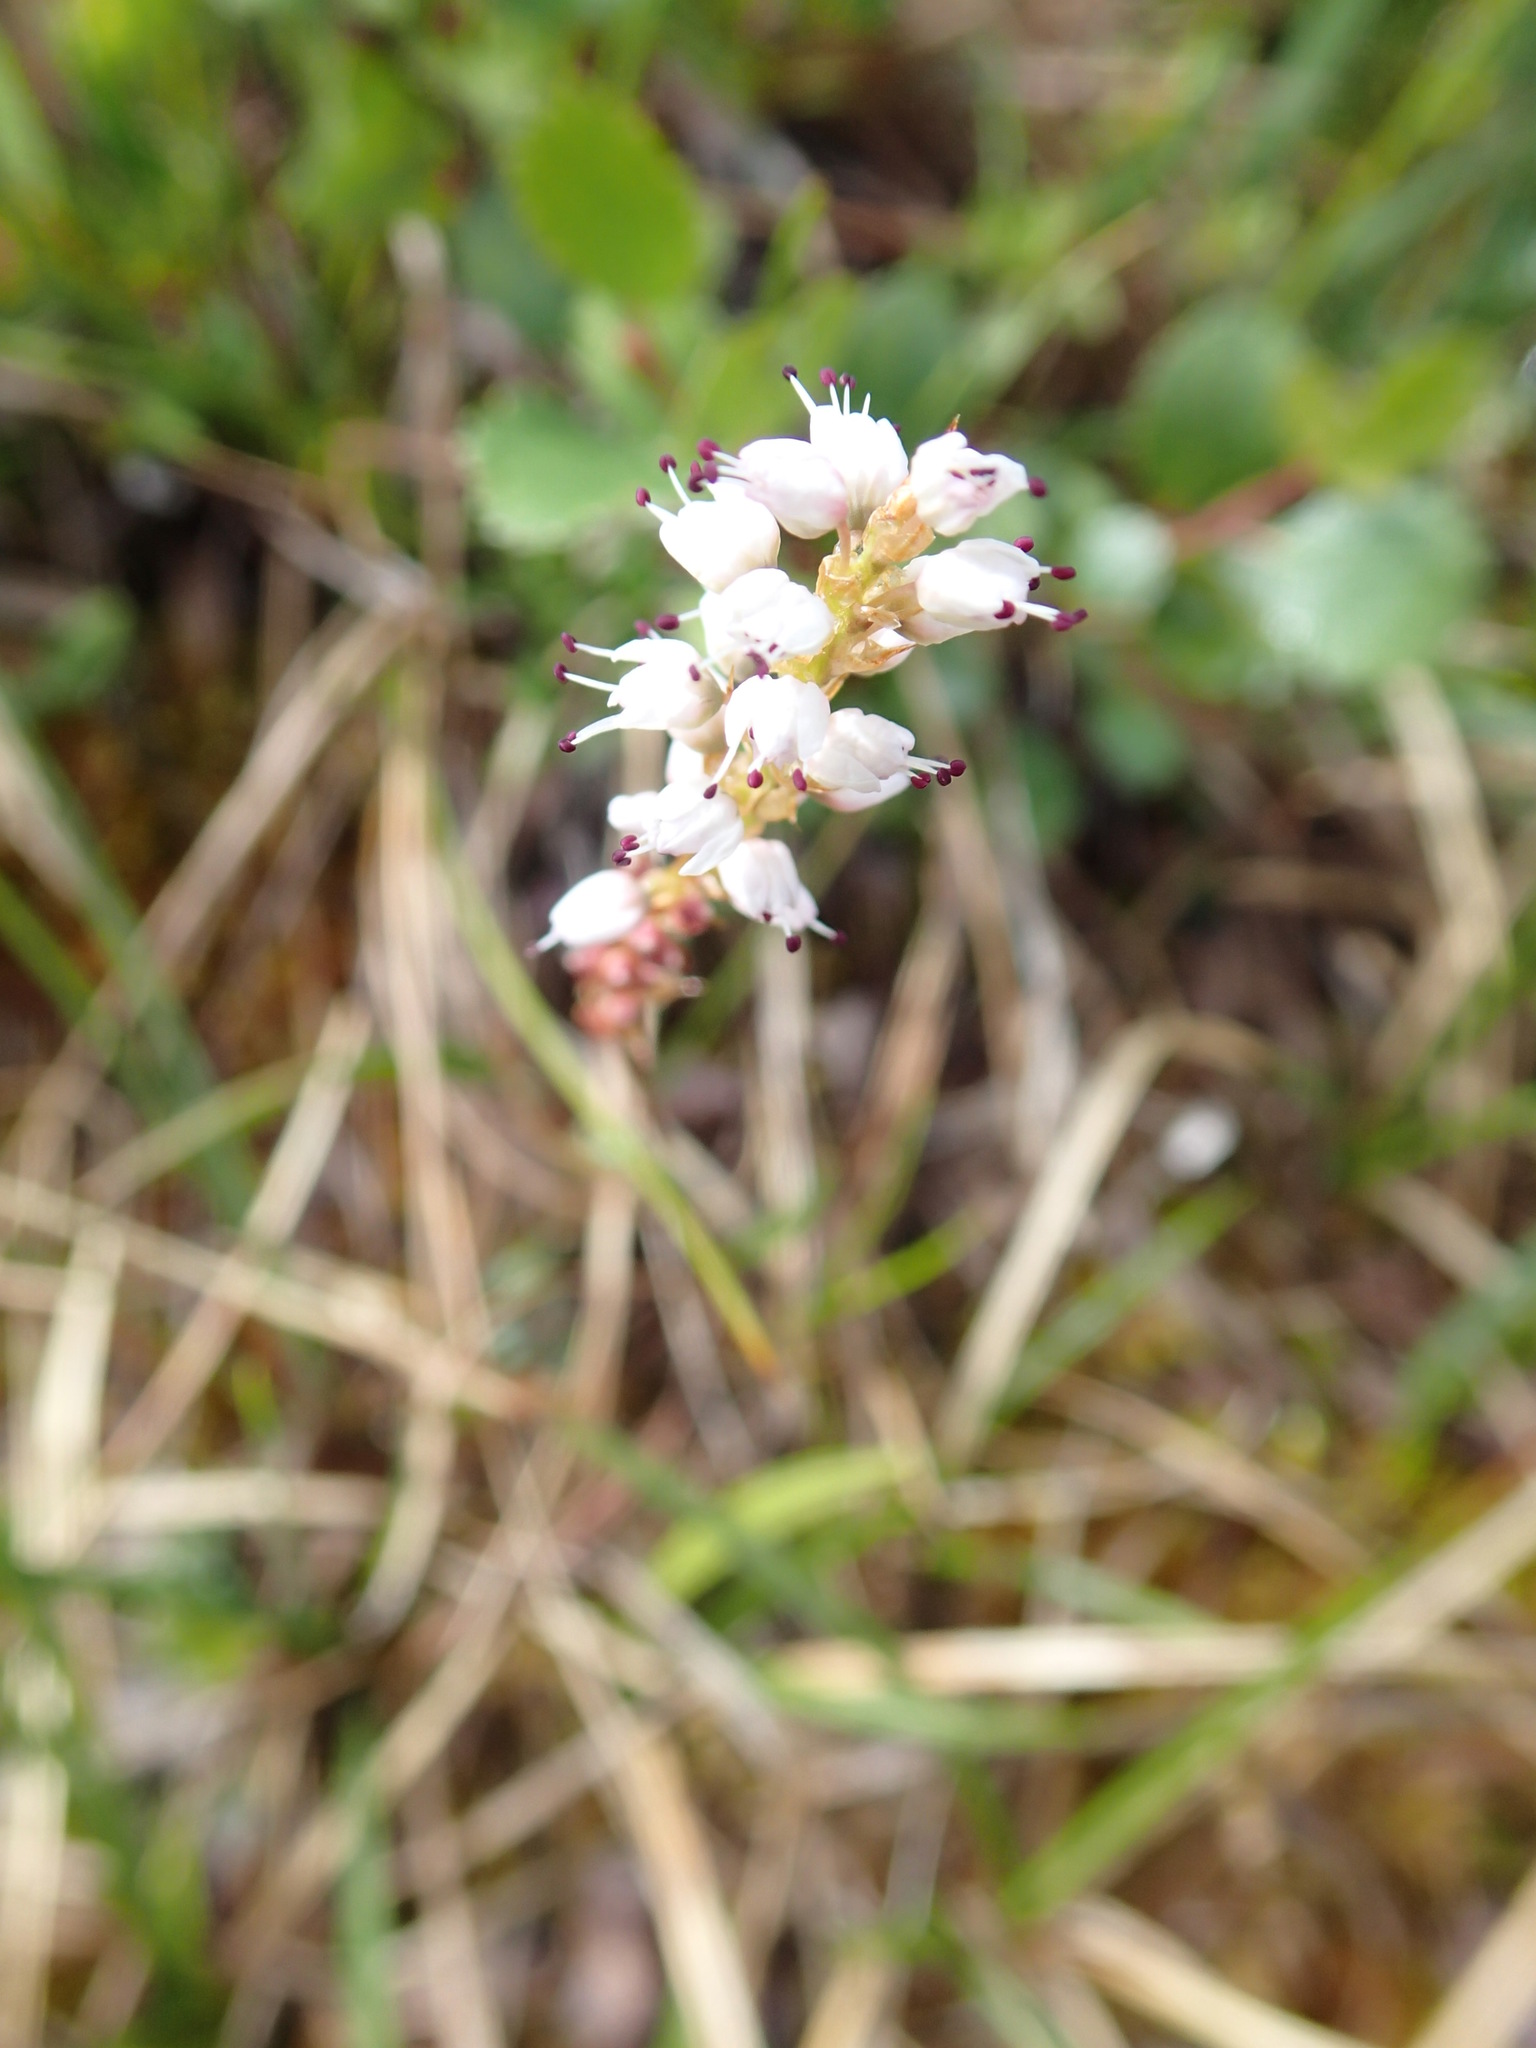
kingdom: Plantae
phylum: Tracheophyta
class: Magnoliopsida
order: Caryophyllales
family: Polygonaceae
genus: Bistorta
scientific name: Bistorta vivipara
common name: Alpine bistort
